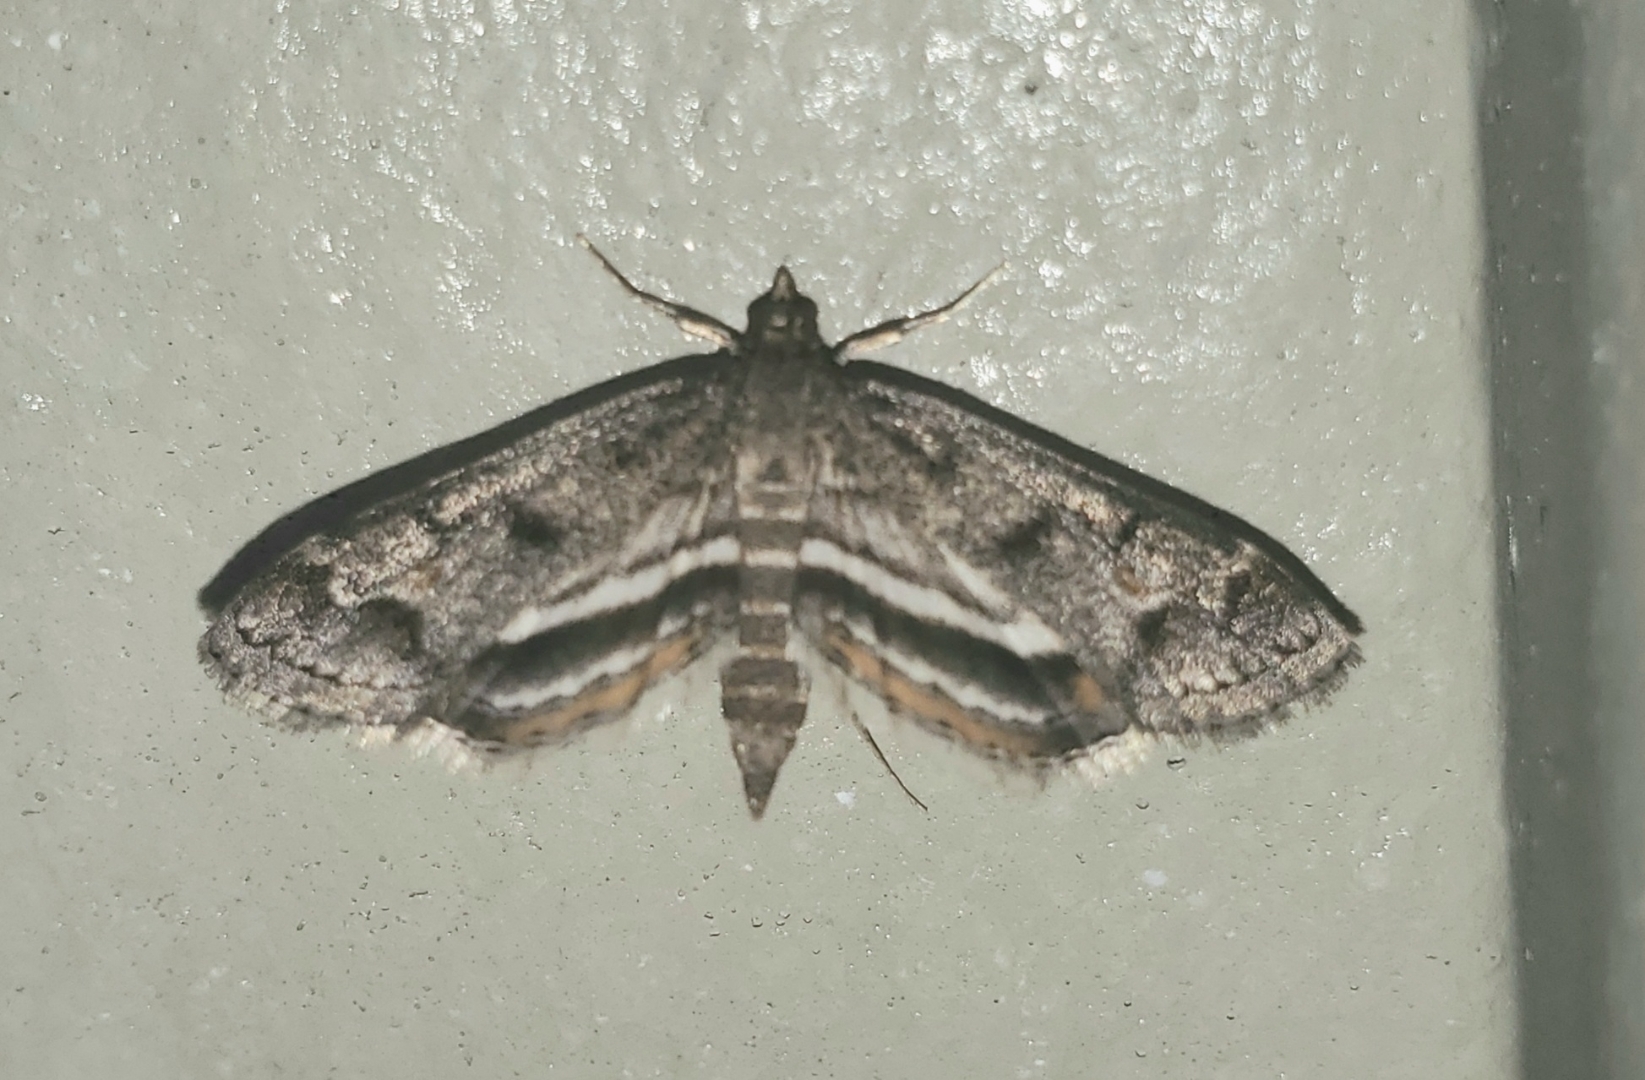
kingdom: Animalia
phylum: Arthropoda
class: Insecta
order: Lepidoptera
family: Crambidae
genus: Parapoynx
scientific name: Parapoynx obscuralis
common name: American china-mark
